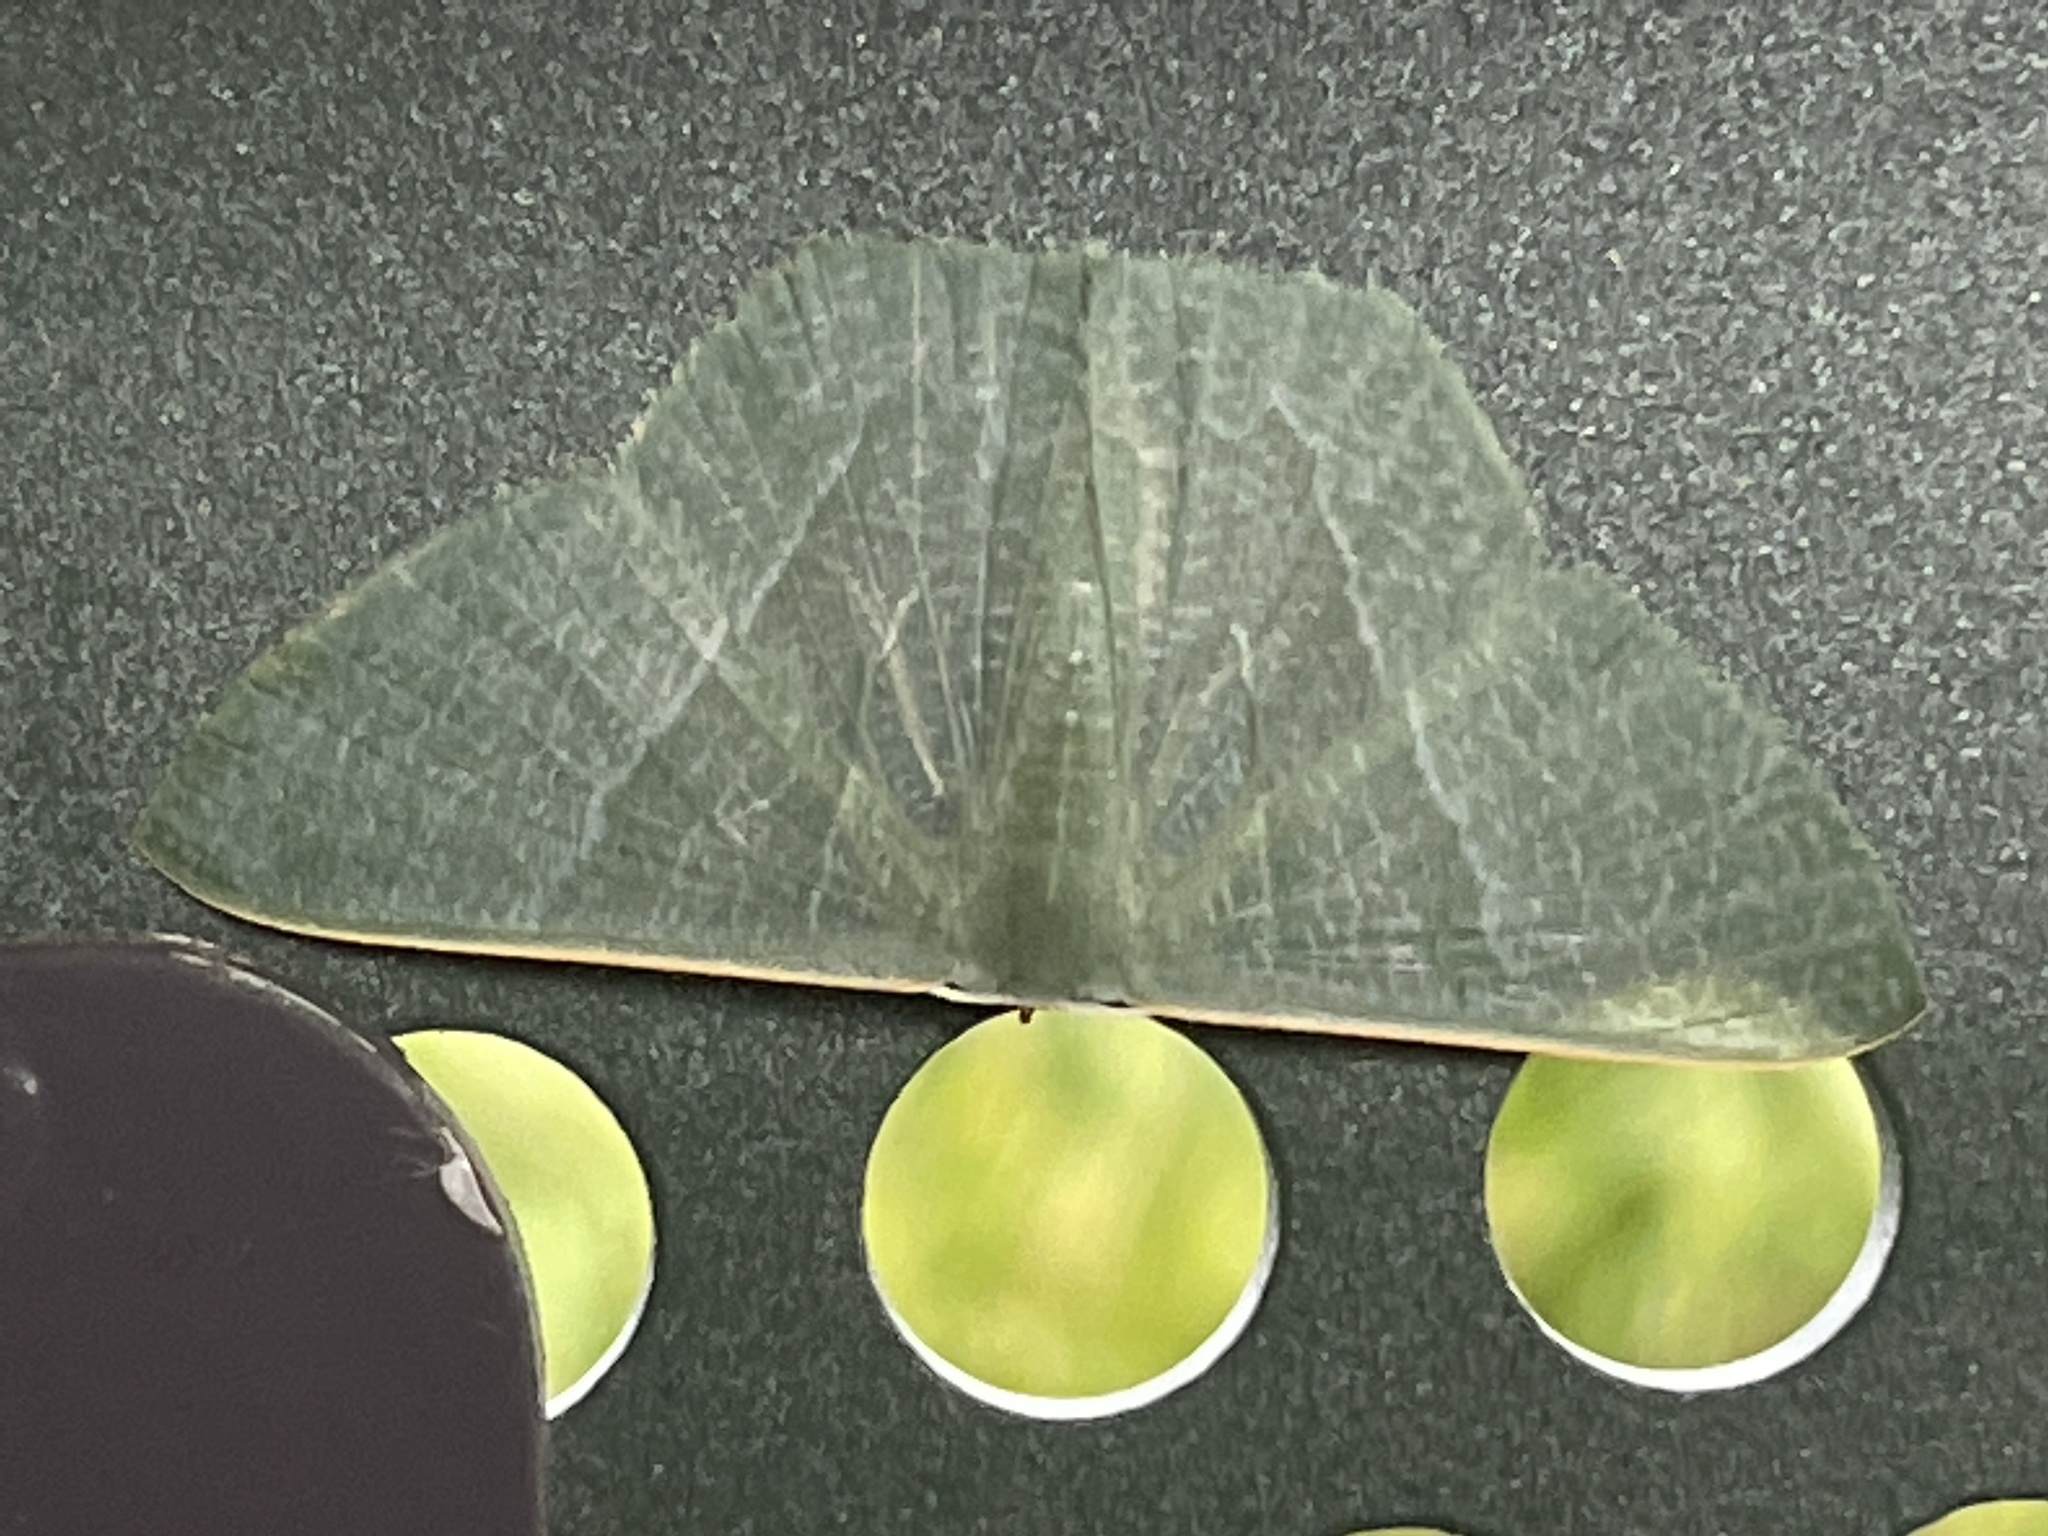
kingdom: Animalia
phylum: Arthropoda
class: Insecta
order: Lepidoptera
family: Geometridae
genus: Thalassodes
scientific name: Thalassodes pilaria
